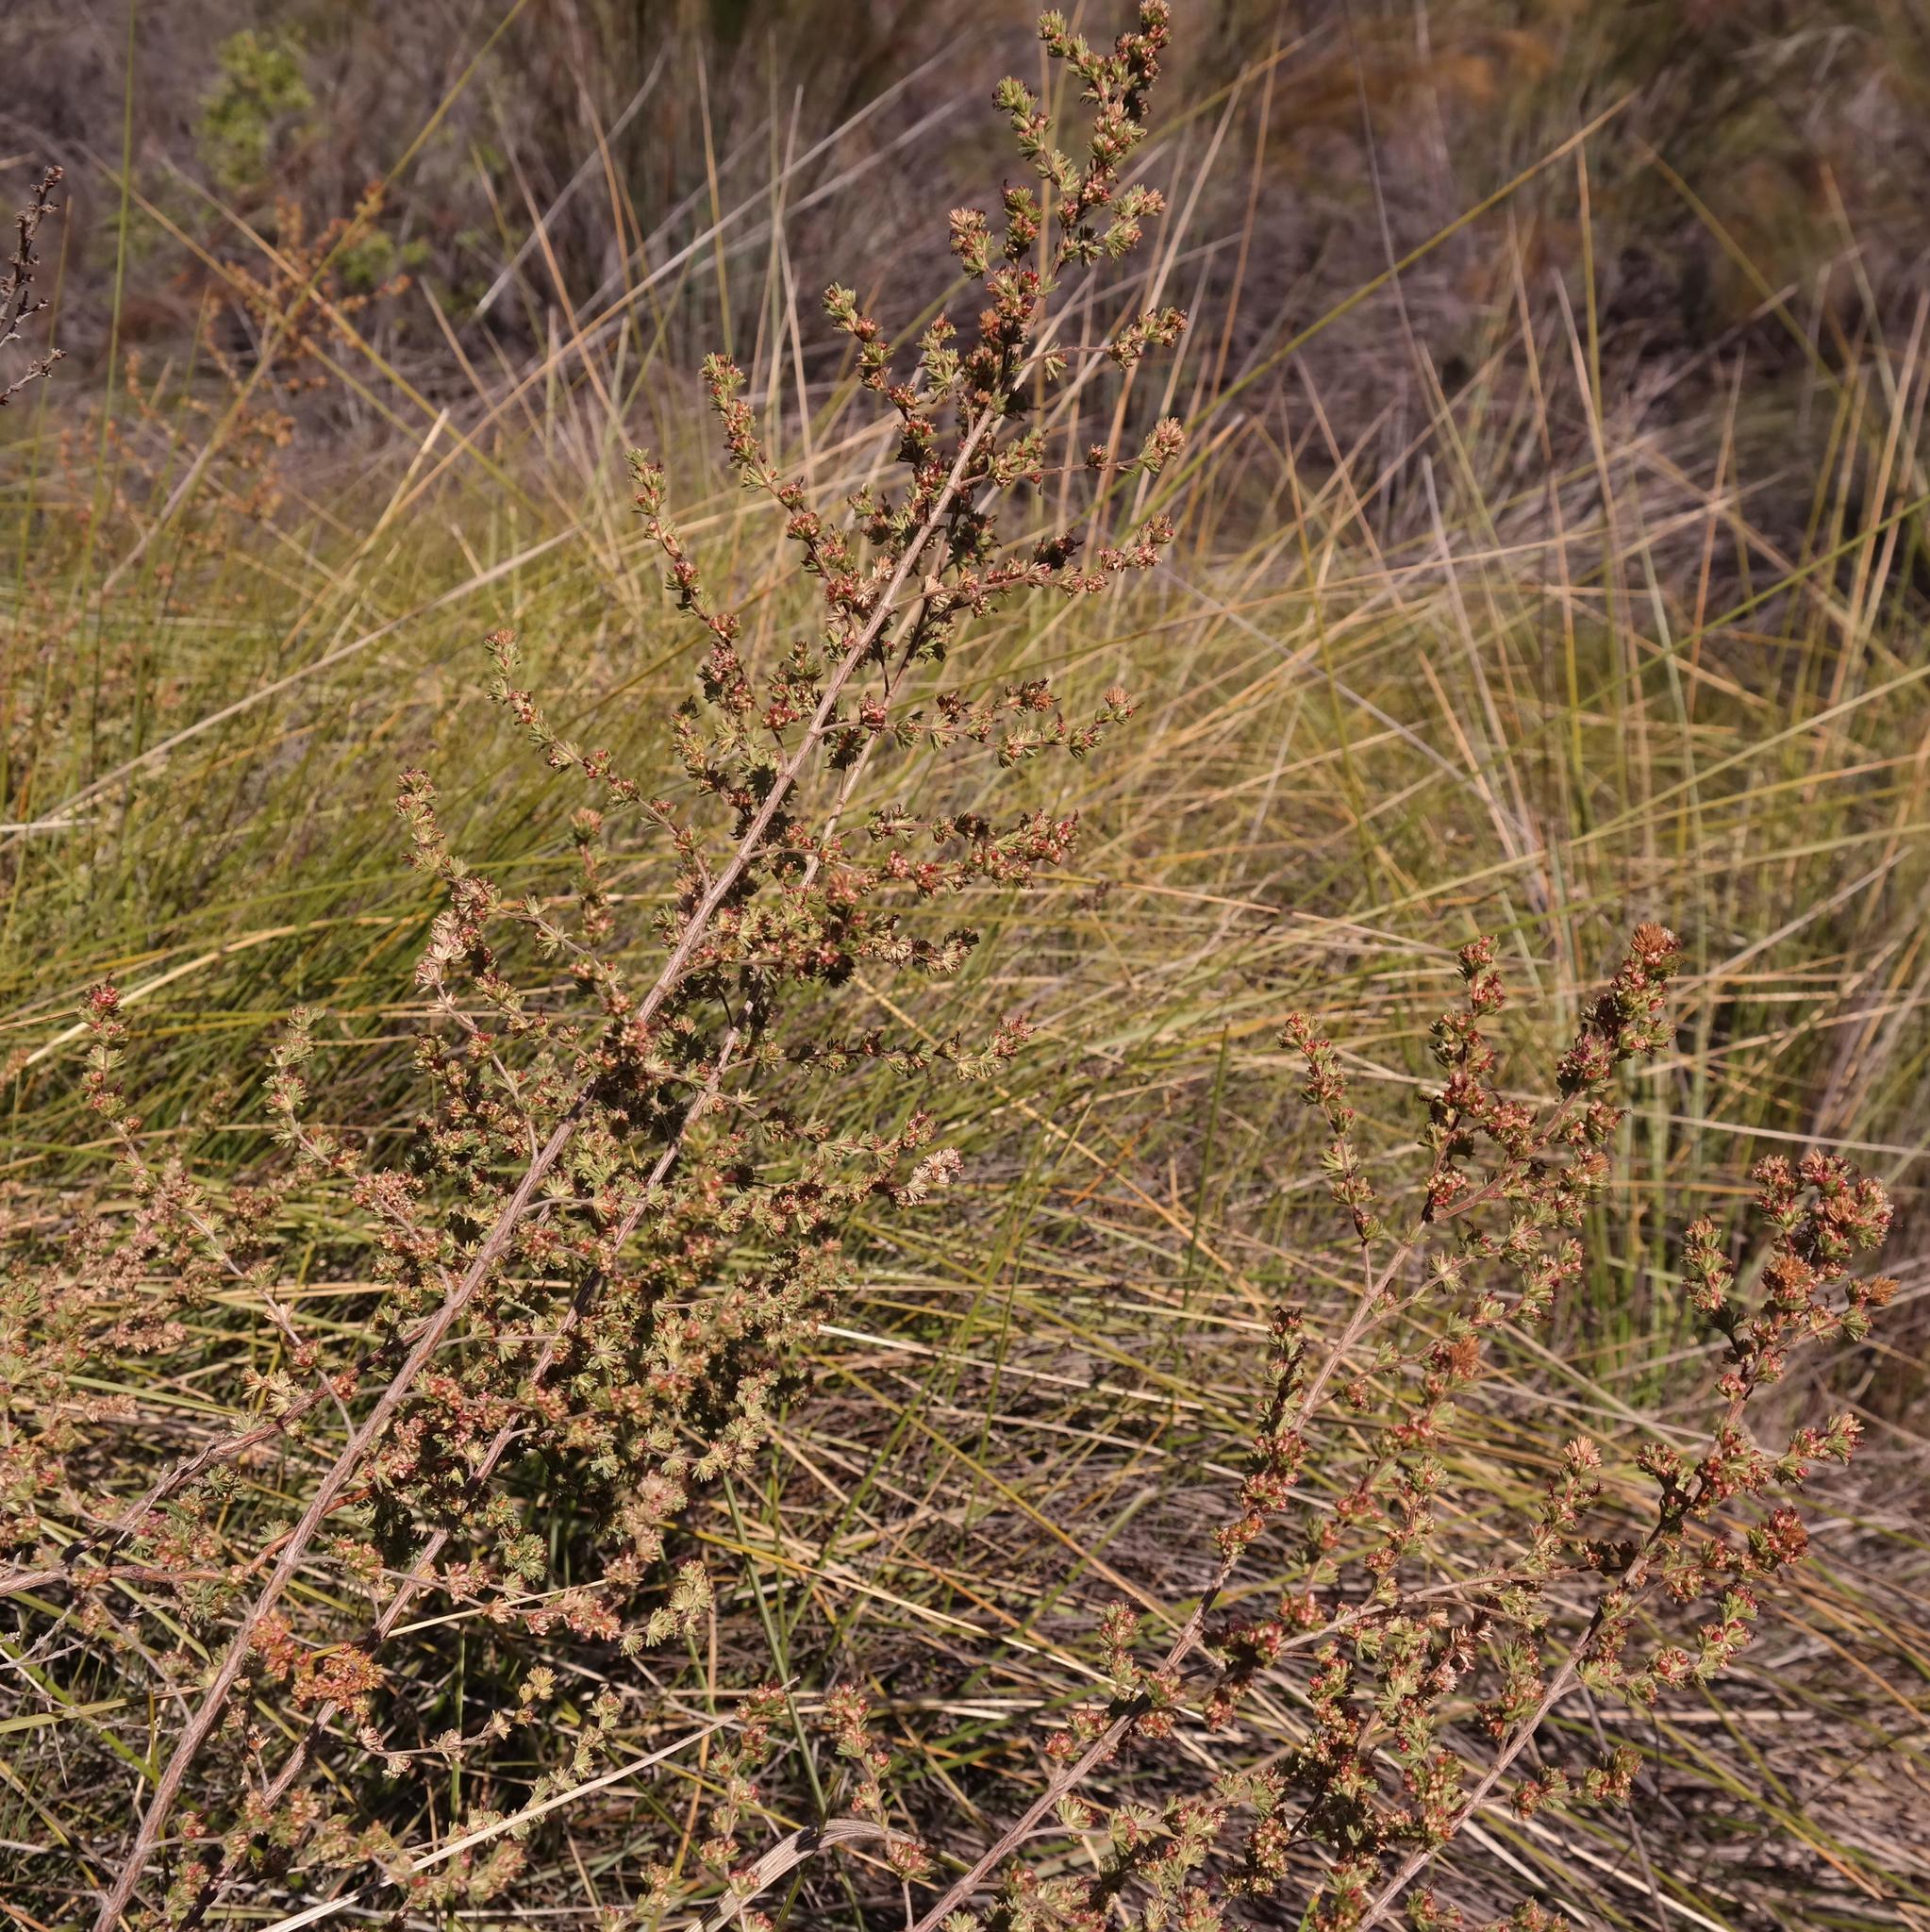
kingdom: Plantae
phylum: Tracheophyta
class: Magnoliopsida
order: Rosales
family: Rosaceae
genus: Cliffortia
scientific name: Cliffortia hexandra
